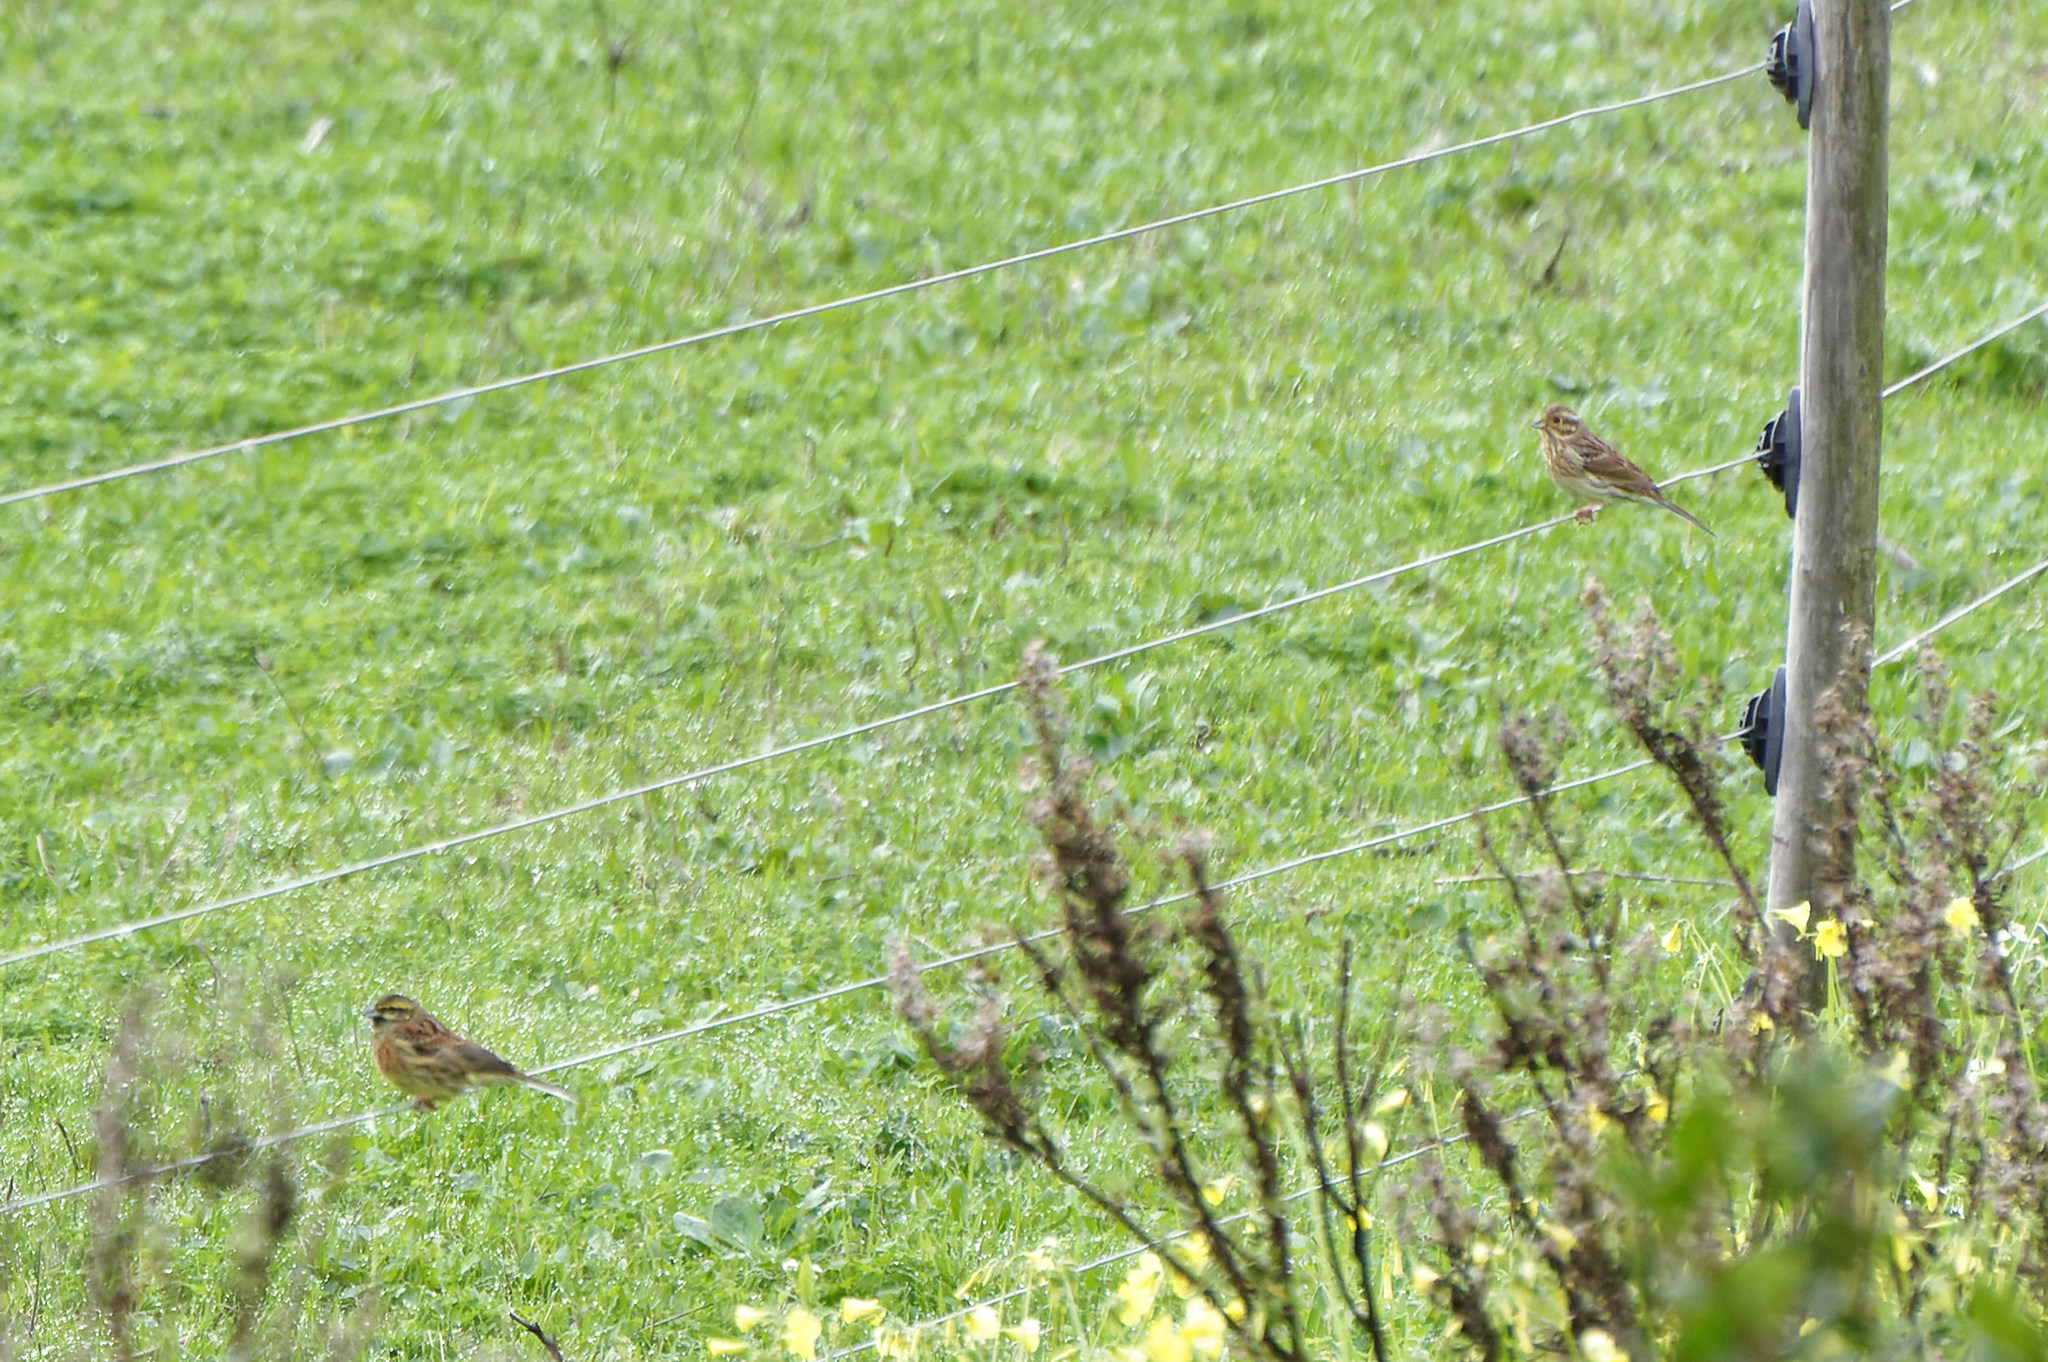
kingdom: Animalia
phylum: Chordata
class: Aves
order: Passeriformes
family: Emberizidae
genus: Emberiza
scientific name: Emberiza cirlus
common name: Cirl bunting
